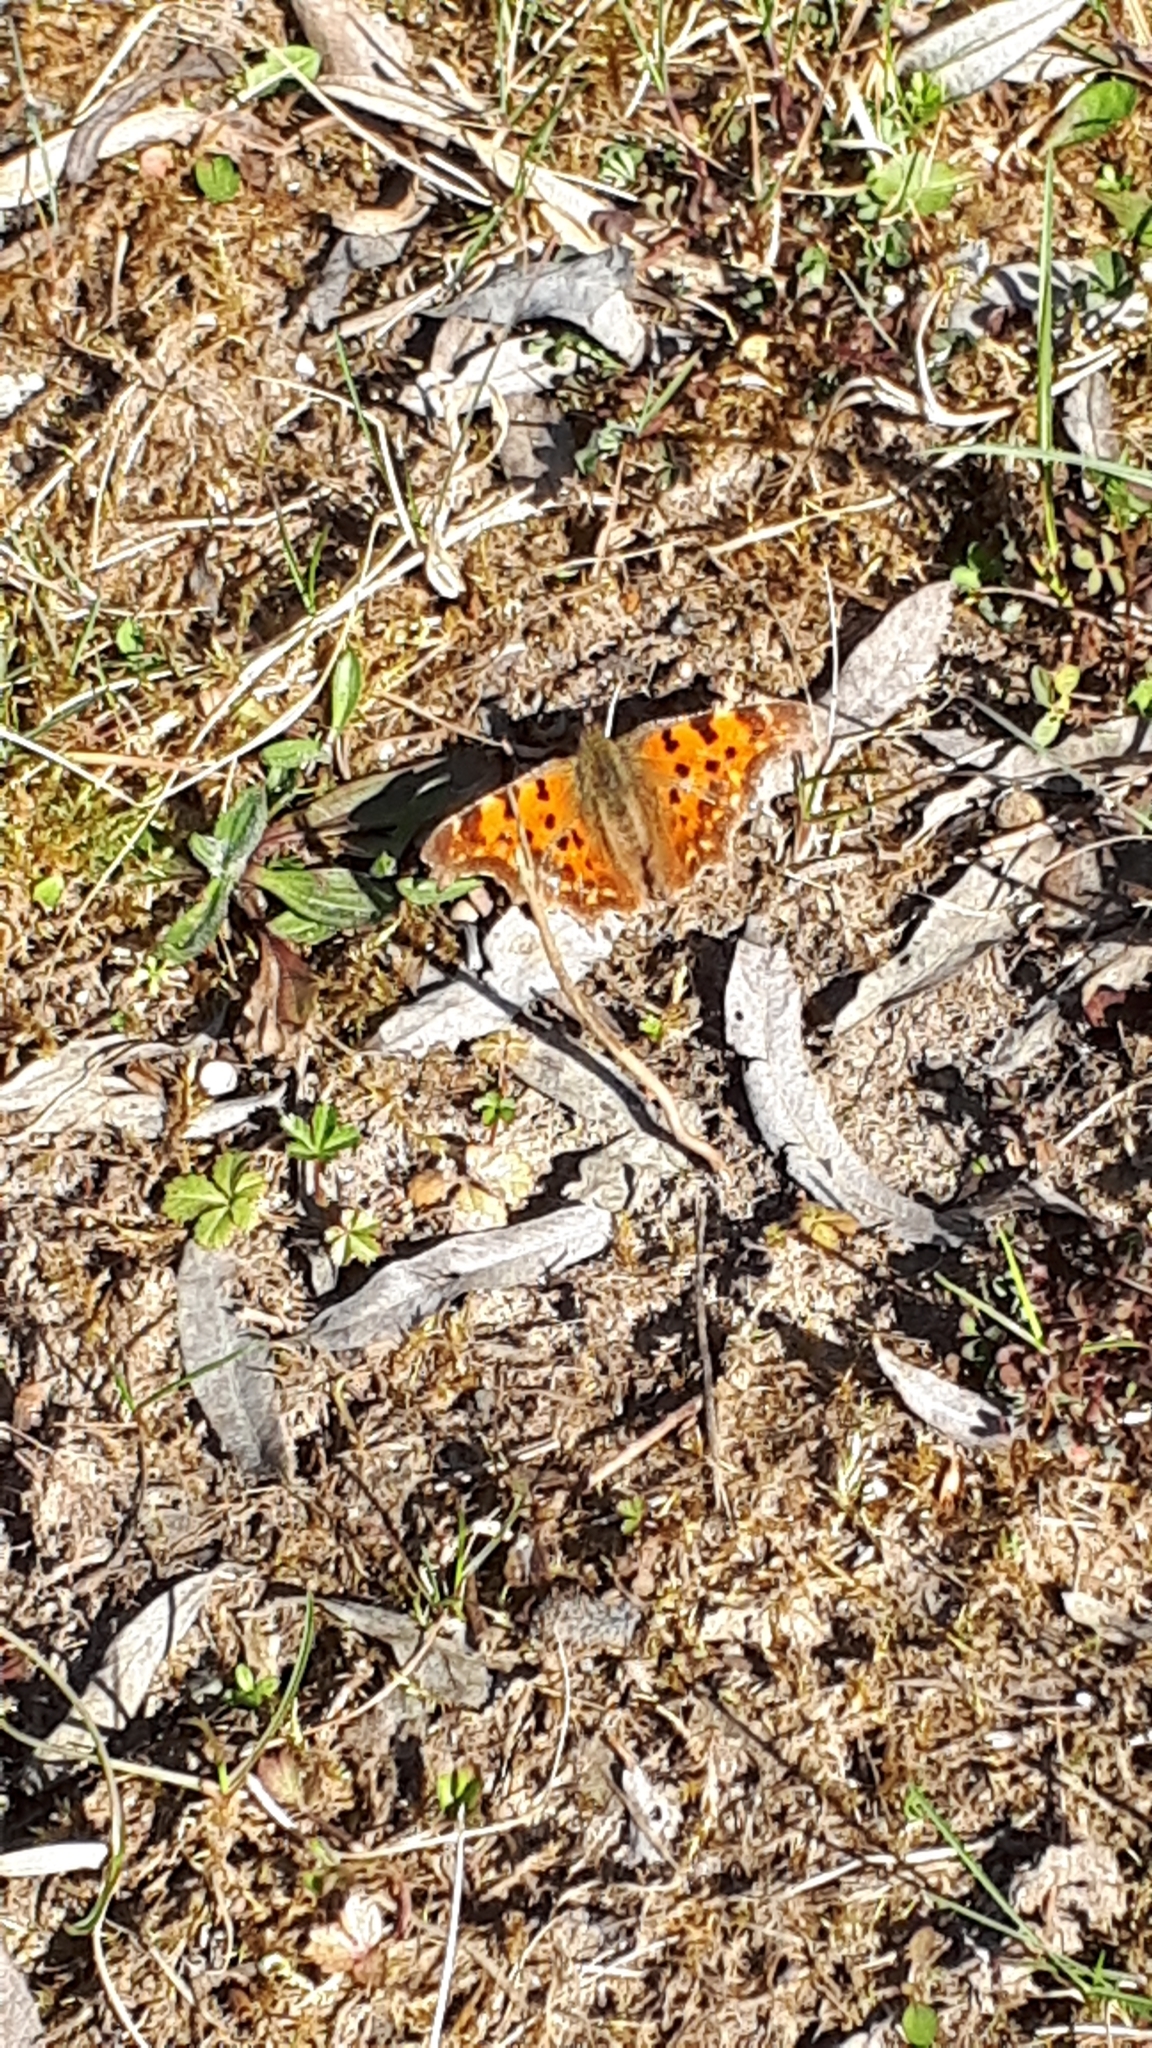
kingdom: Animalia
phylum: Arthropoda
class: Insecta
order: Lepidoptera
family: Nymphalidae
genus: Polygonia
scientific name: Polygonia c-album
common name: Comma
